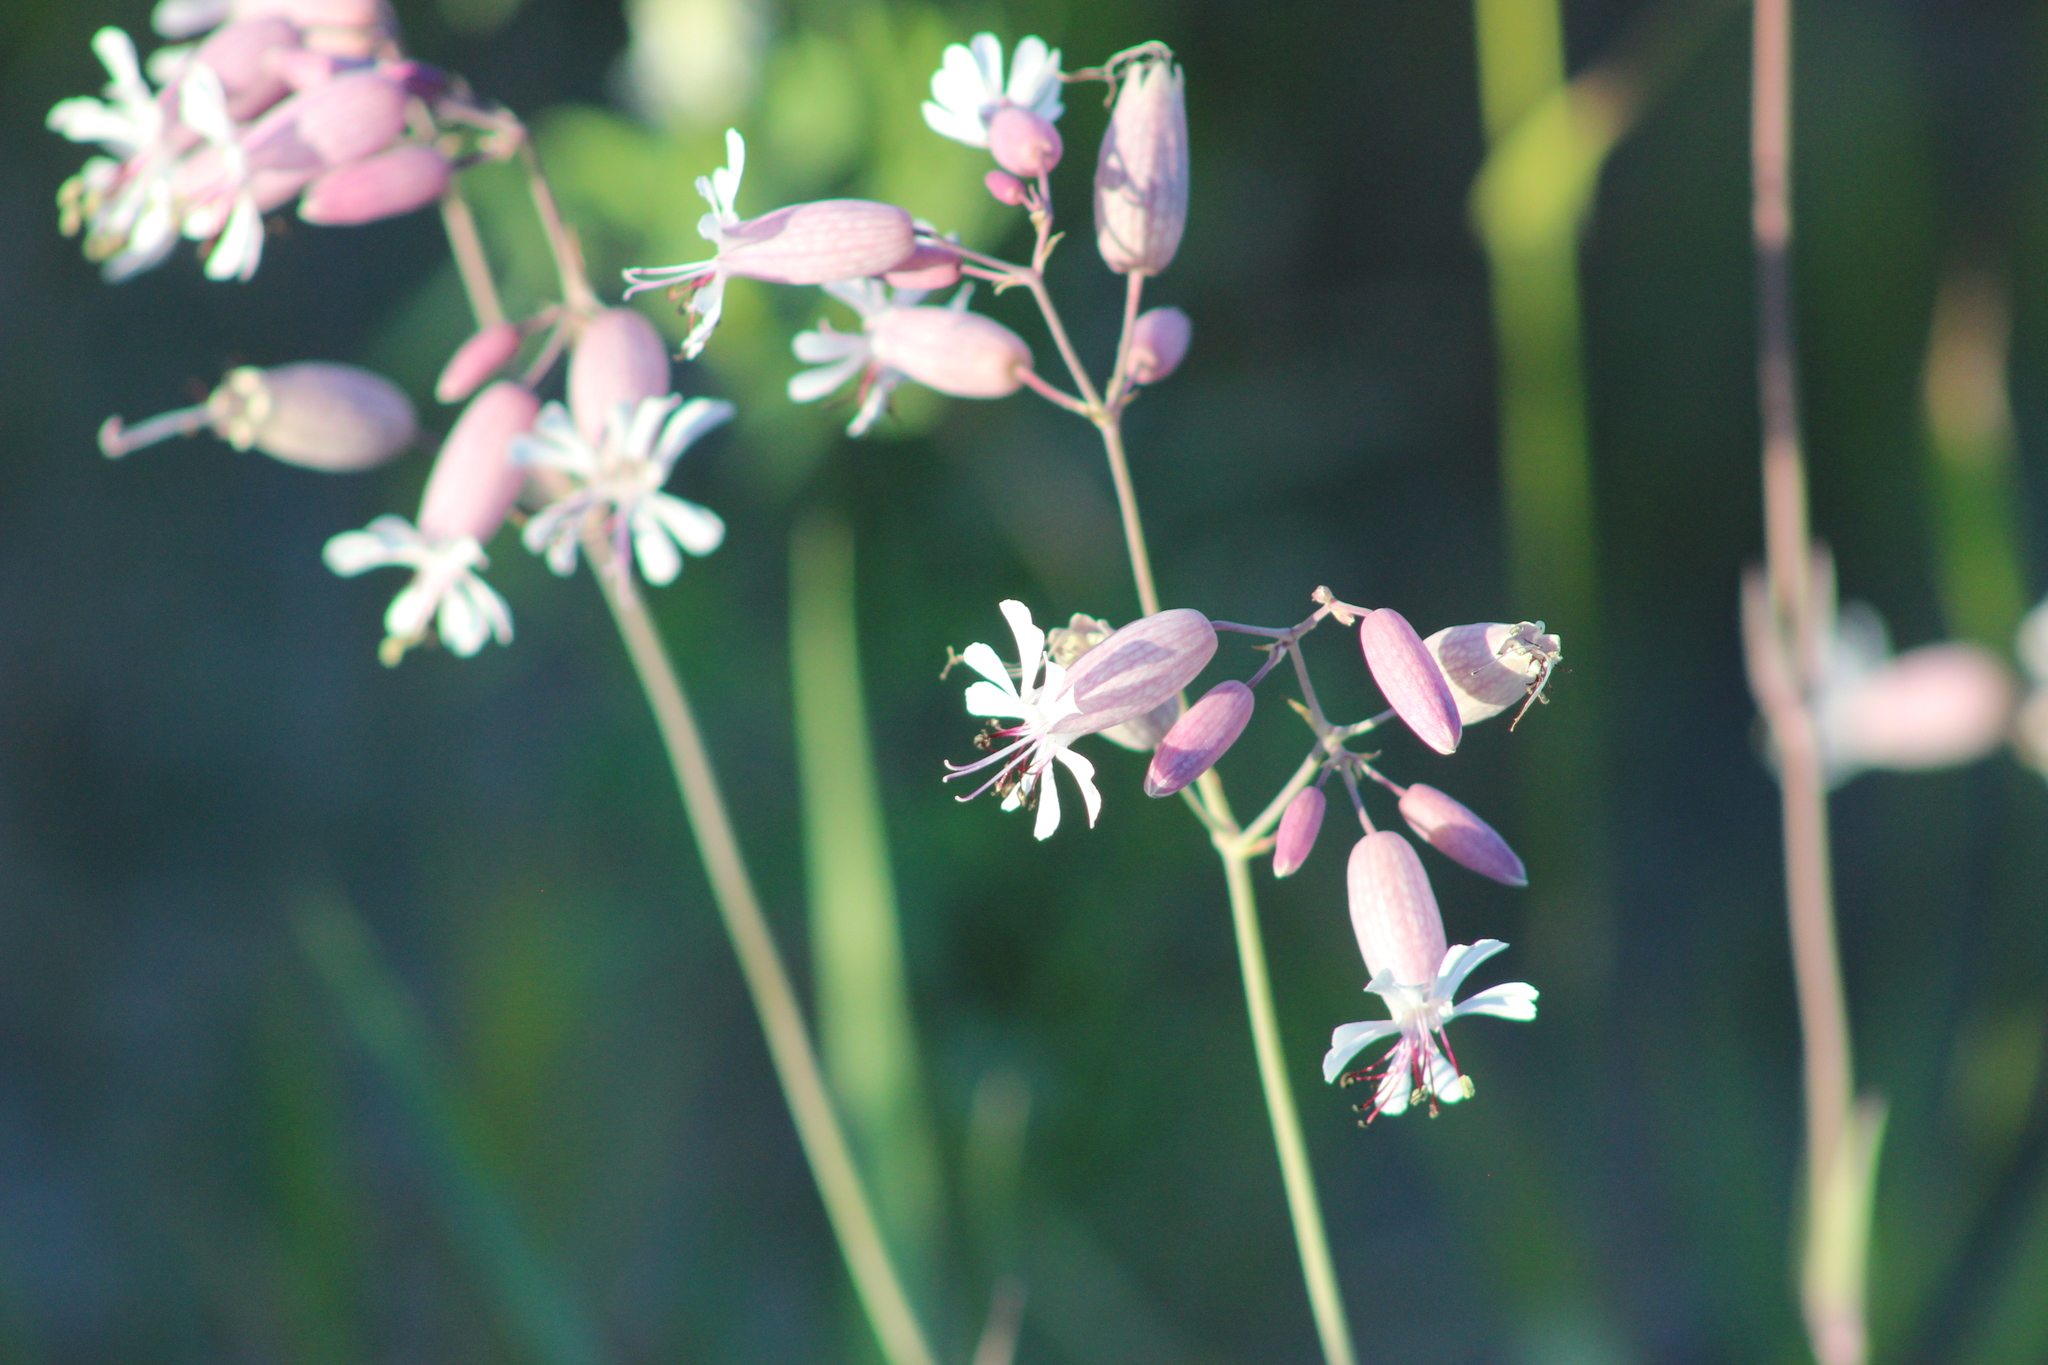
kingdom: Plantae
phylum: Tracheophyta
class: Magnoliopsida
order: Caryophyllales
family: Caryophyllaceae
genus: Silene
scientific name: Silene vulgaris
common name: Bladder campion
